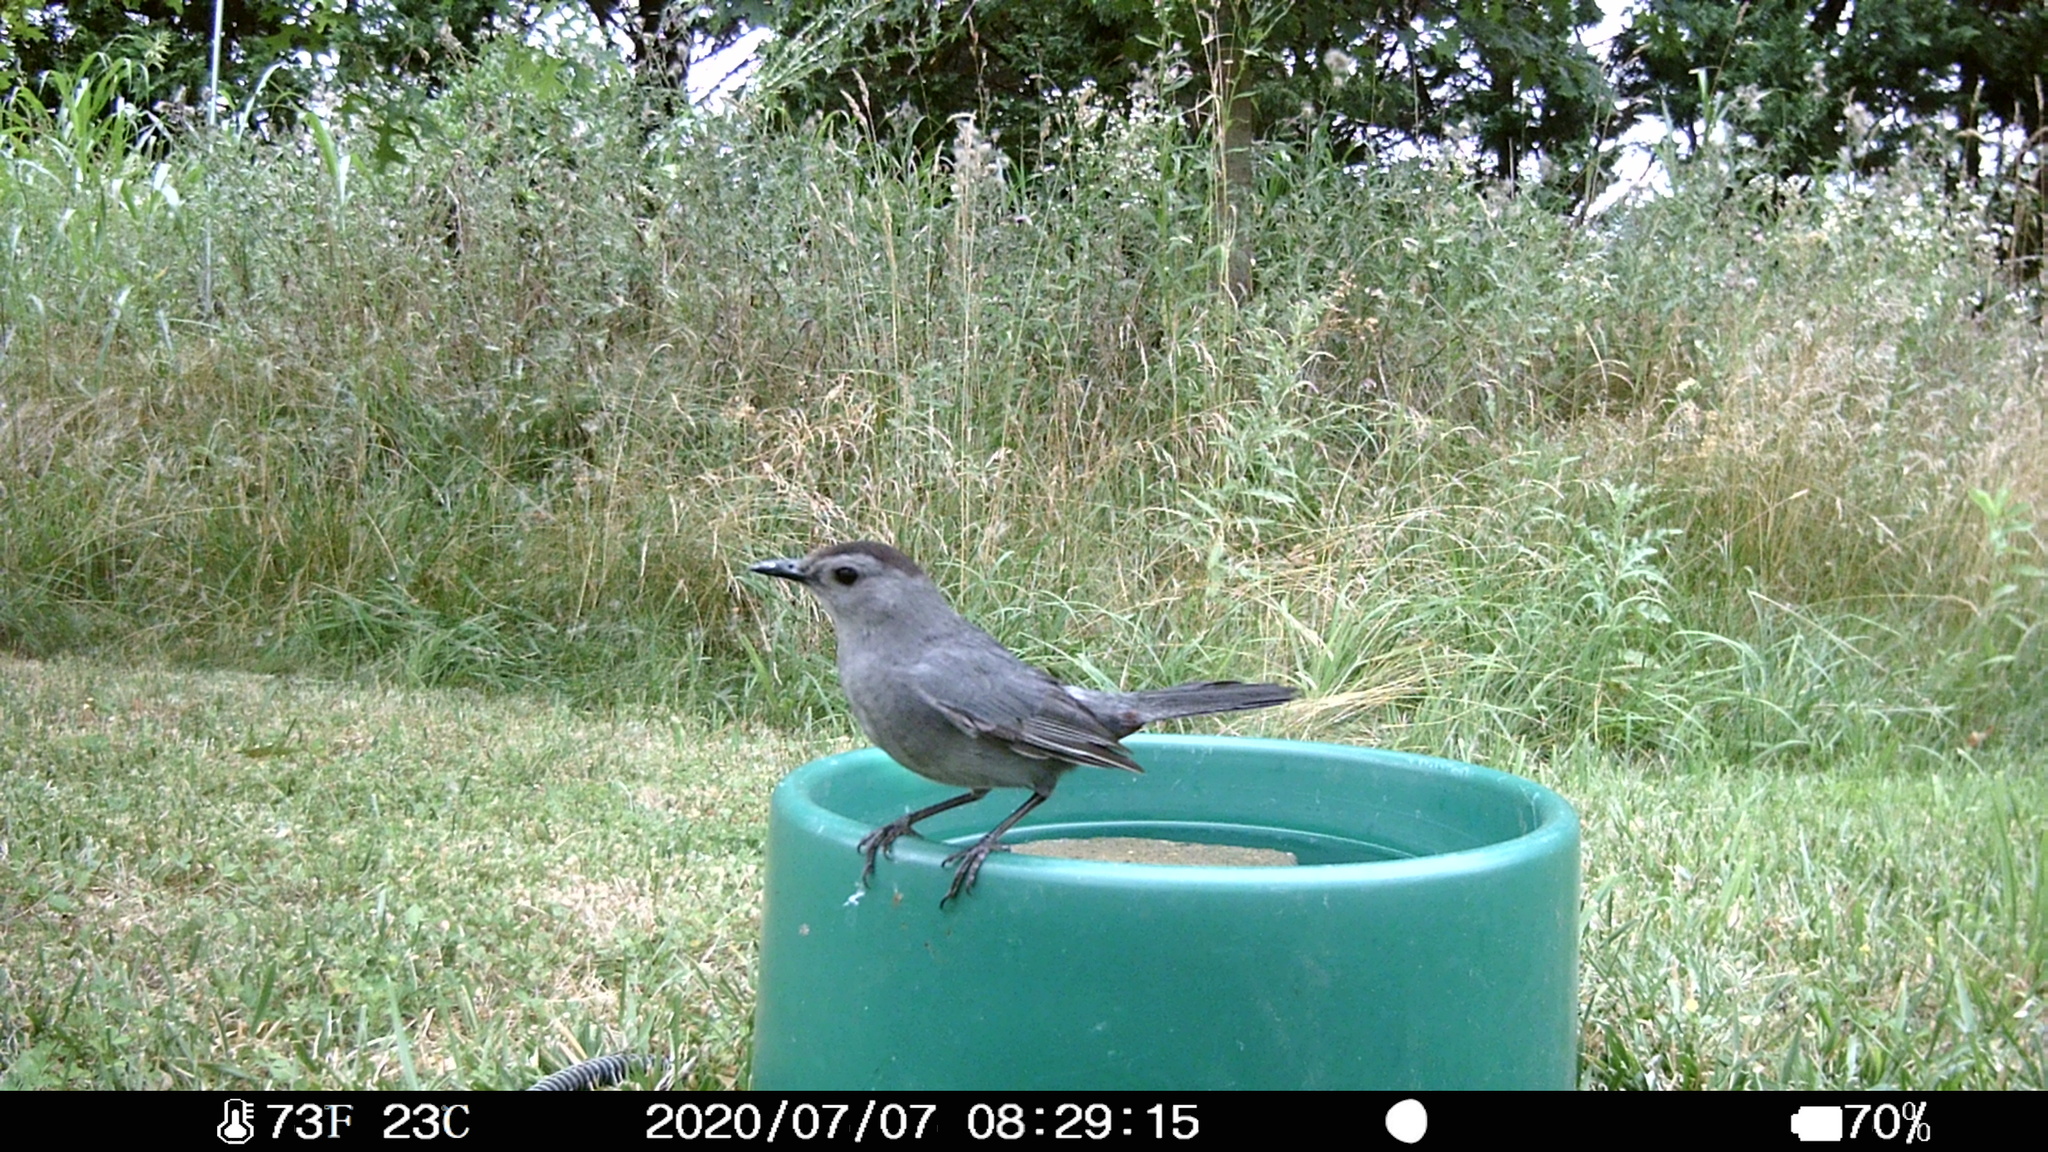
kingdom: Animalia
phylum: Chordata
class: Aves
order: Passeriformes
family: Mimidae
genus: Dumetella
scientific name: Dumetella carolinensis
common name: Gray catbird
